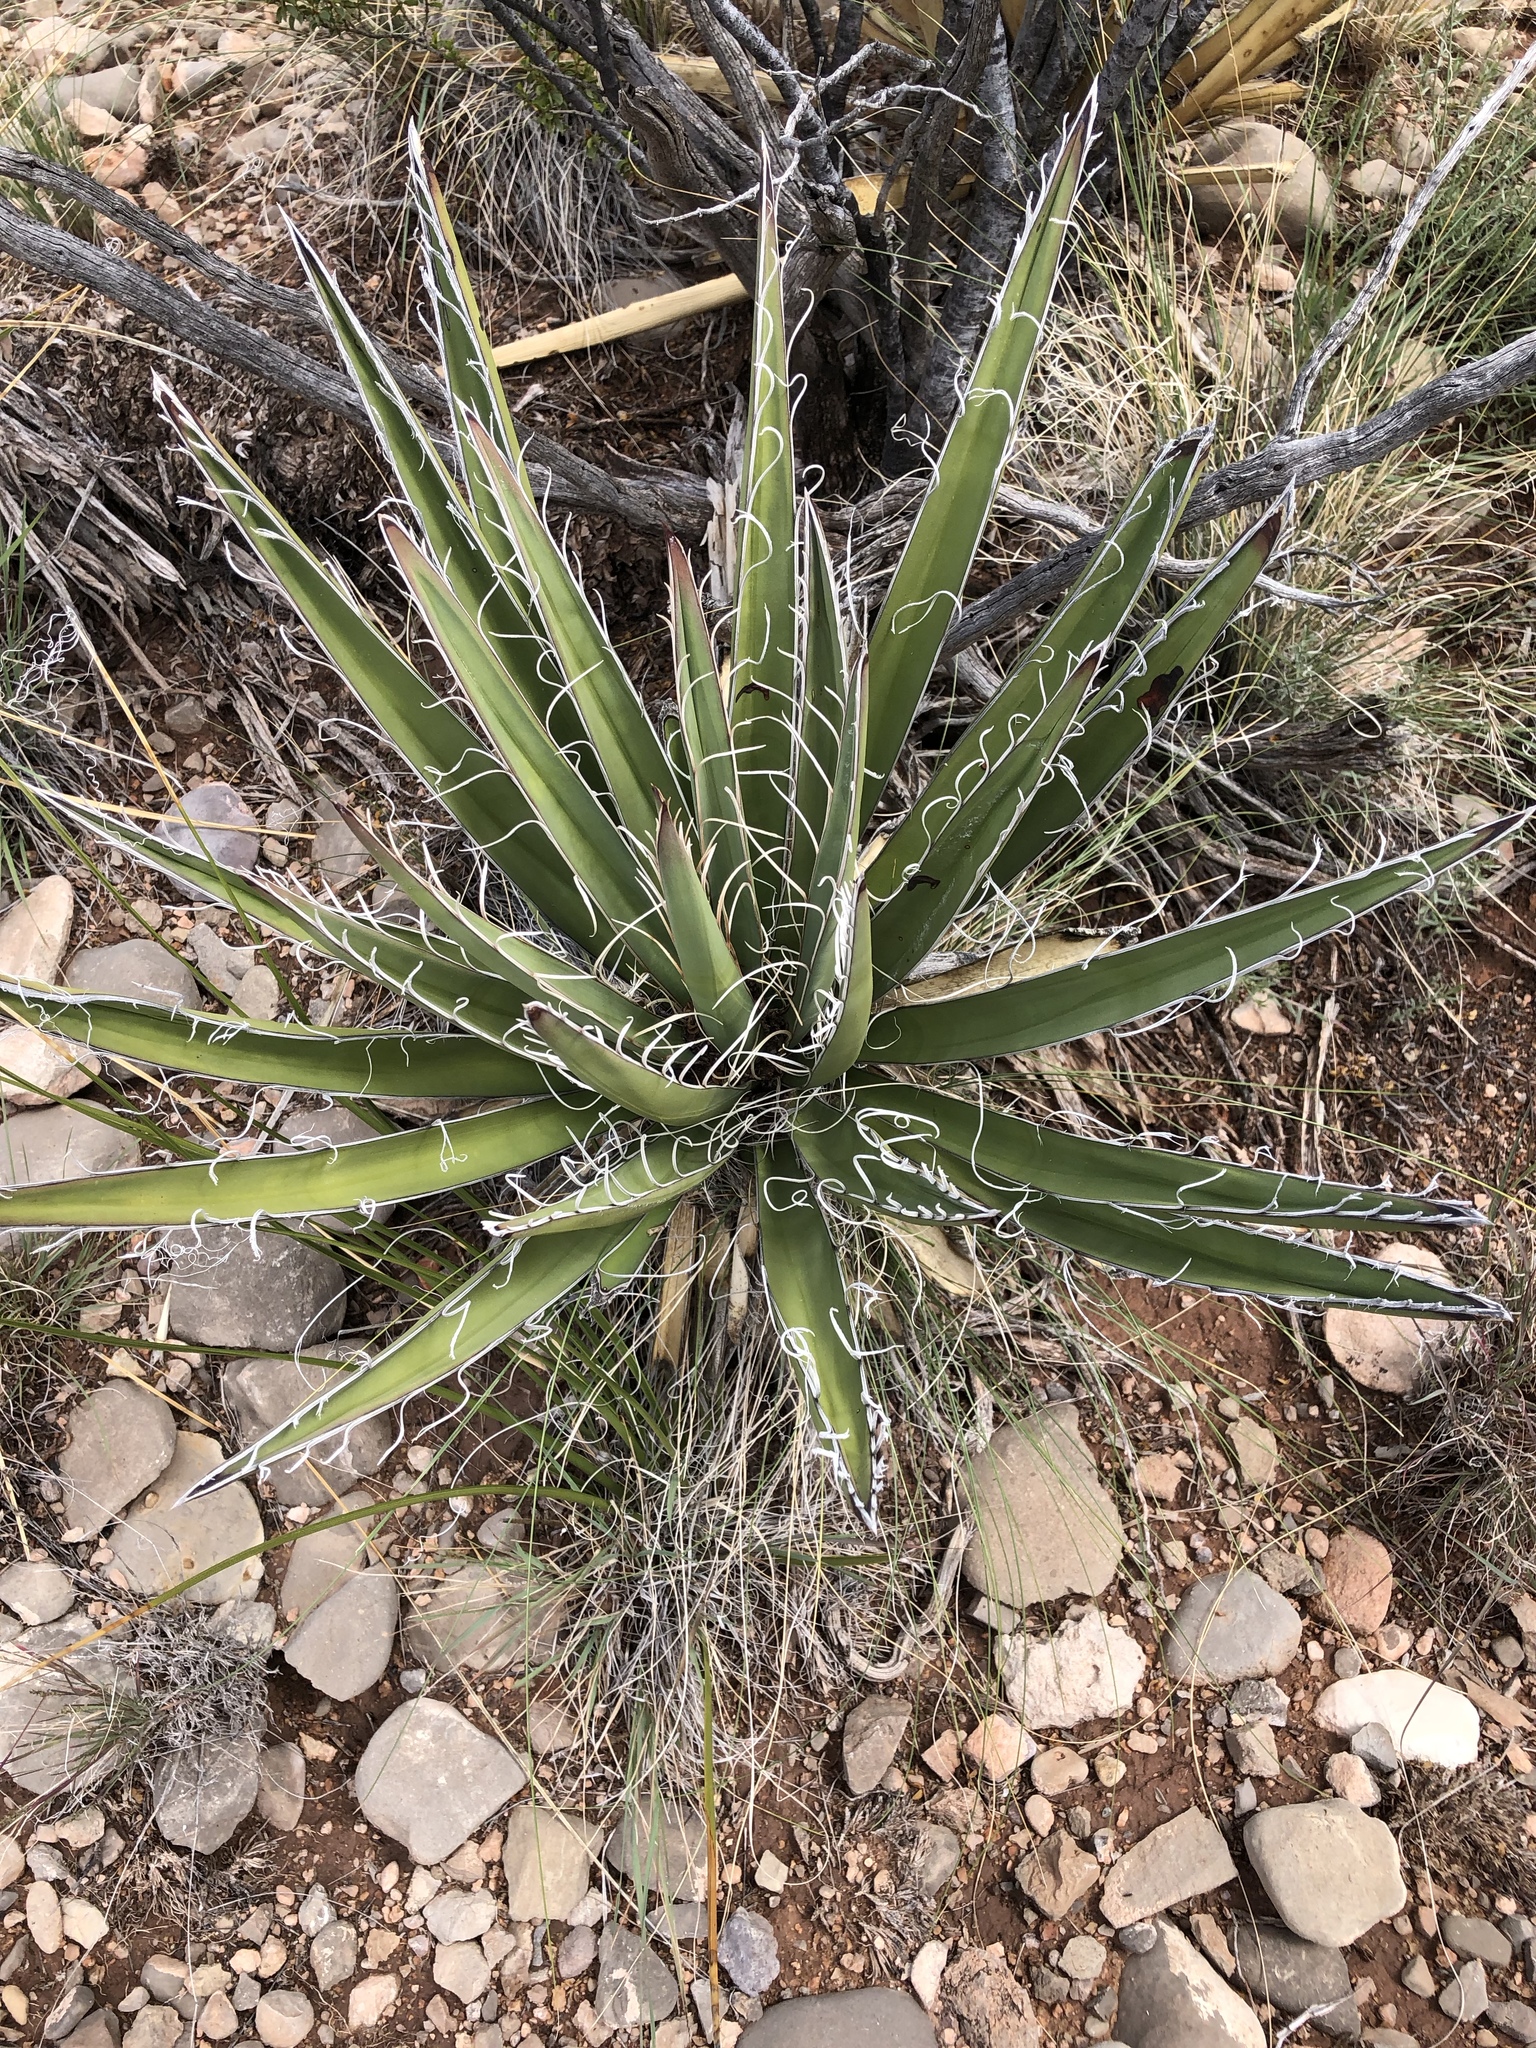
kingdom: Plantae
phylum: Tracheophyta
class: Liliopsida
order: Asparagales
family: Asparagaceae
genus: Yucca
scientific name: Yucca baccata
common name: Banana yucca
